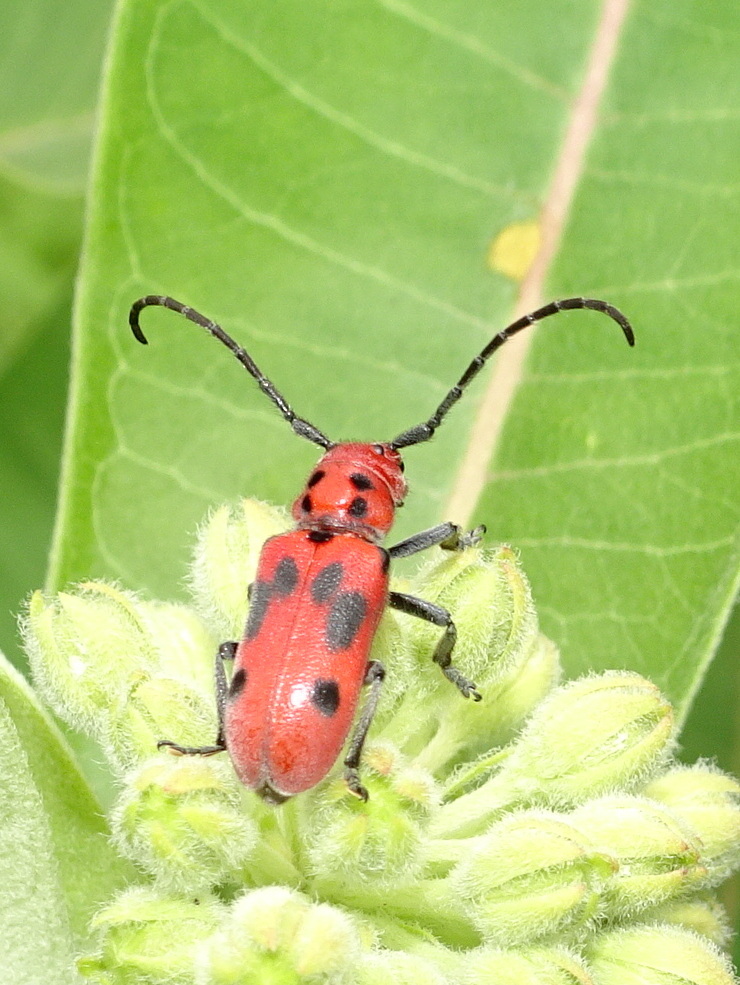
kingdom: Animalia
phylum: Arthropoda
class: Insecta
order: Coleoptera
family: Cerambycidae
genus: Tetraopes
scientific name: Tetraopes tetrophthalmus
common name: Red milkweed beetle
